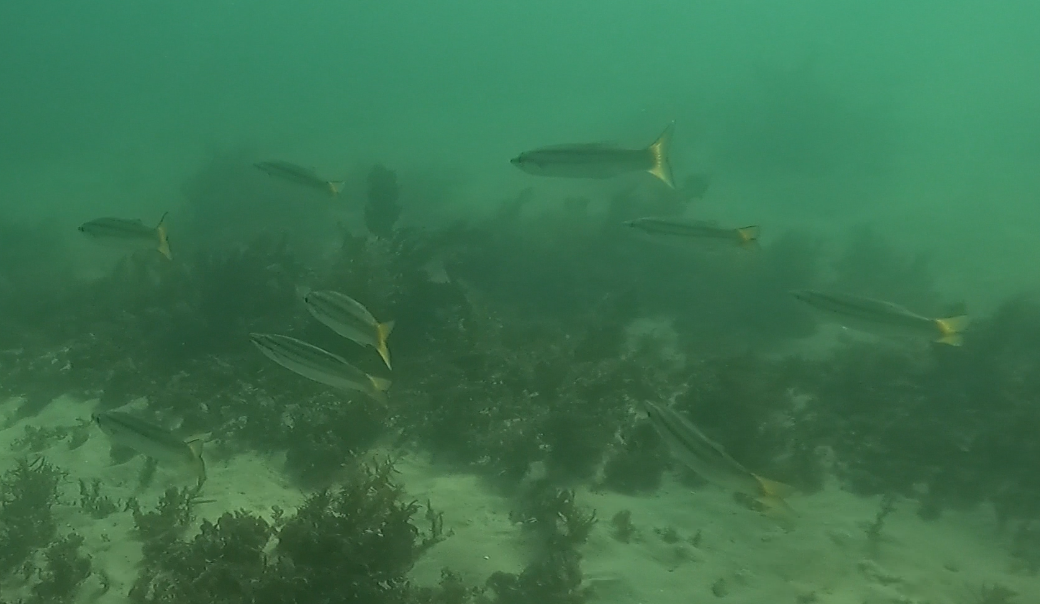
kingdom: Animalia
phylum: Chordata
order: Perciformes
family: Sphyraenidae
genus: Sphyraena
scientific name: Sphyraena obtusata
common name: Obtuse barracuda
